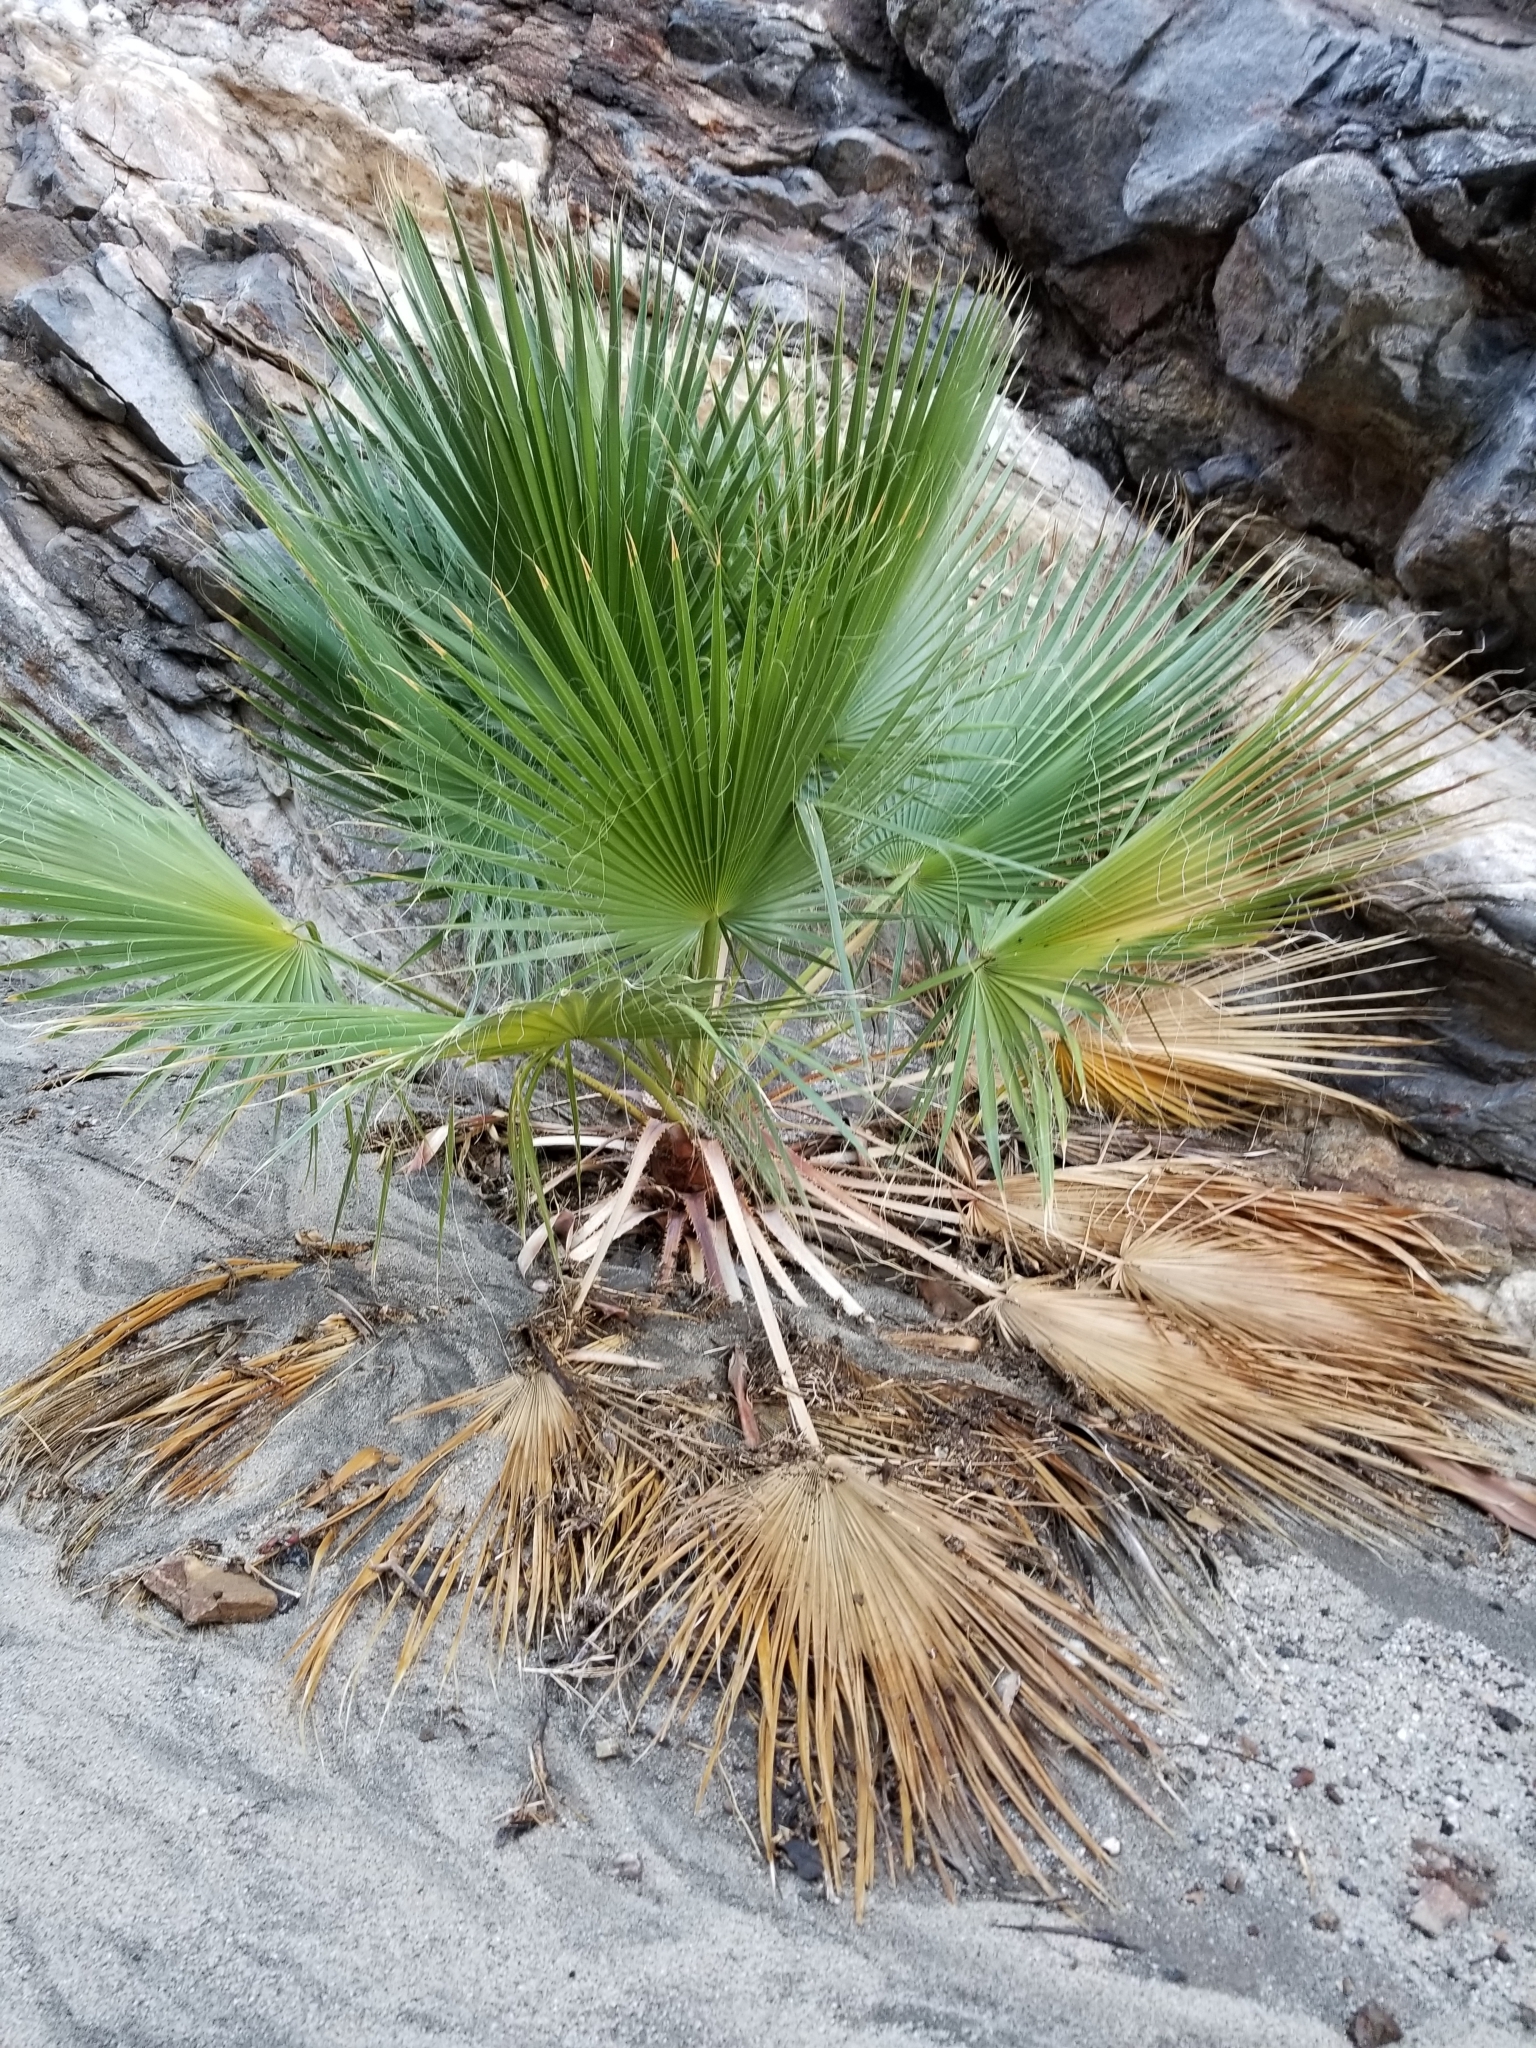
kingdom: Plantae
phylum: Tracheophyta
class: Liliopsida
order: Arecales
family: Arecaceae
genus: Washingtonia
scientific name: Washingtonia filifera
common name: California fan palm
